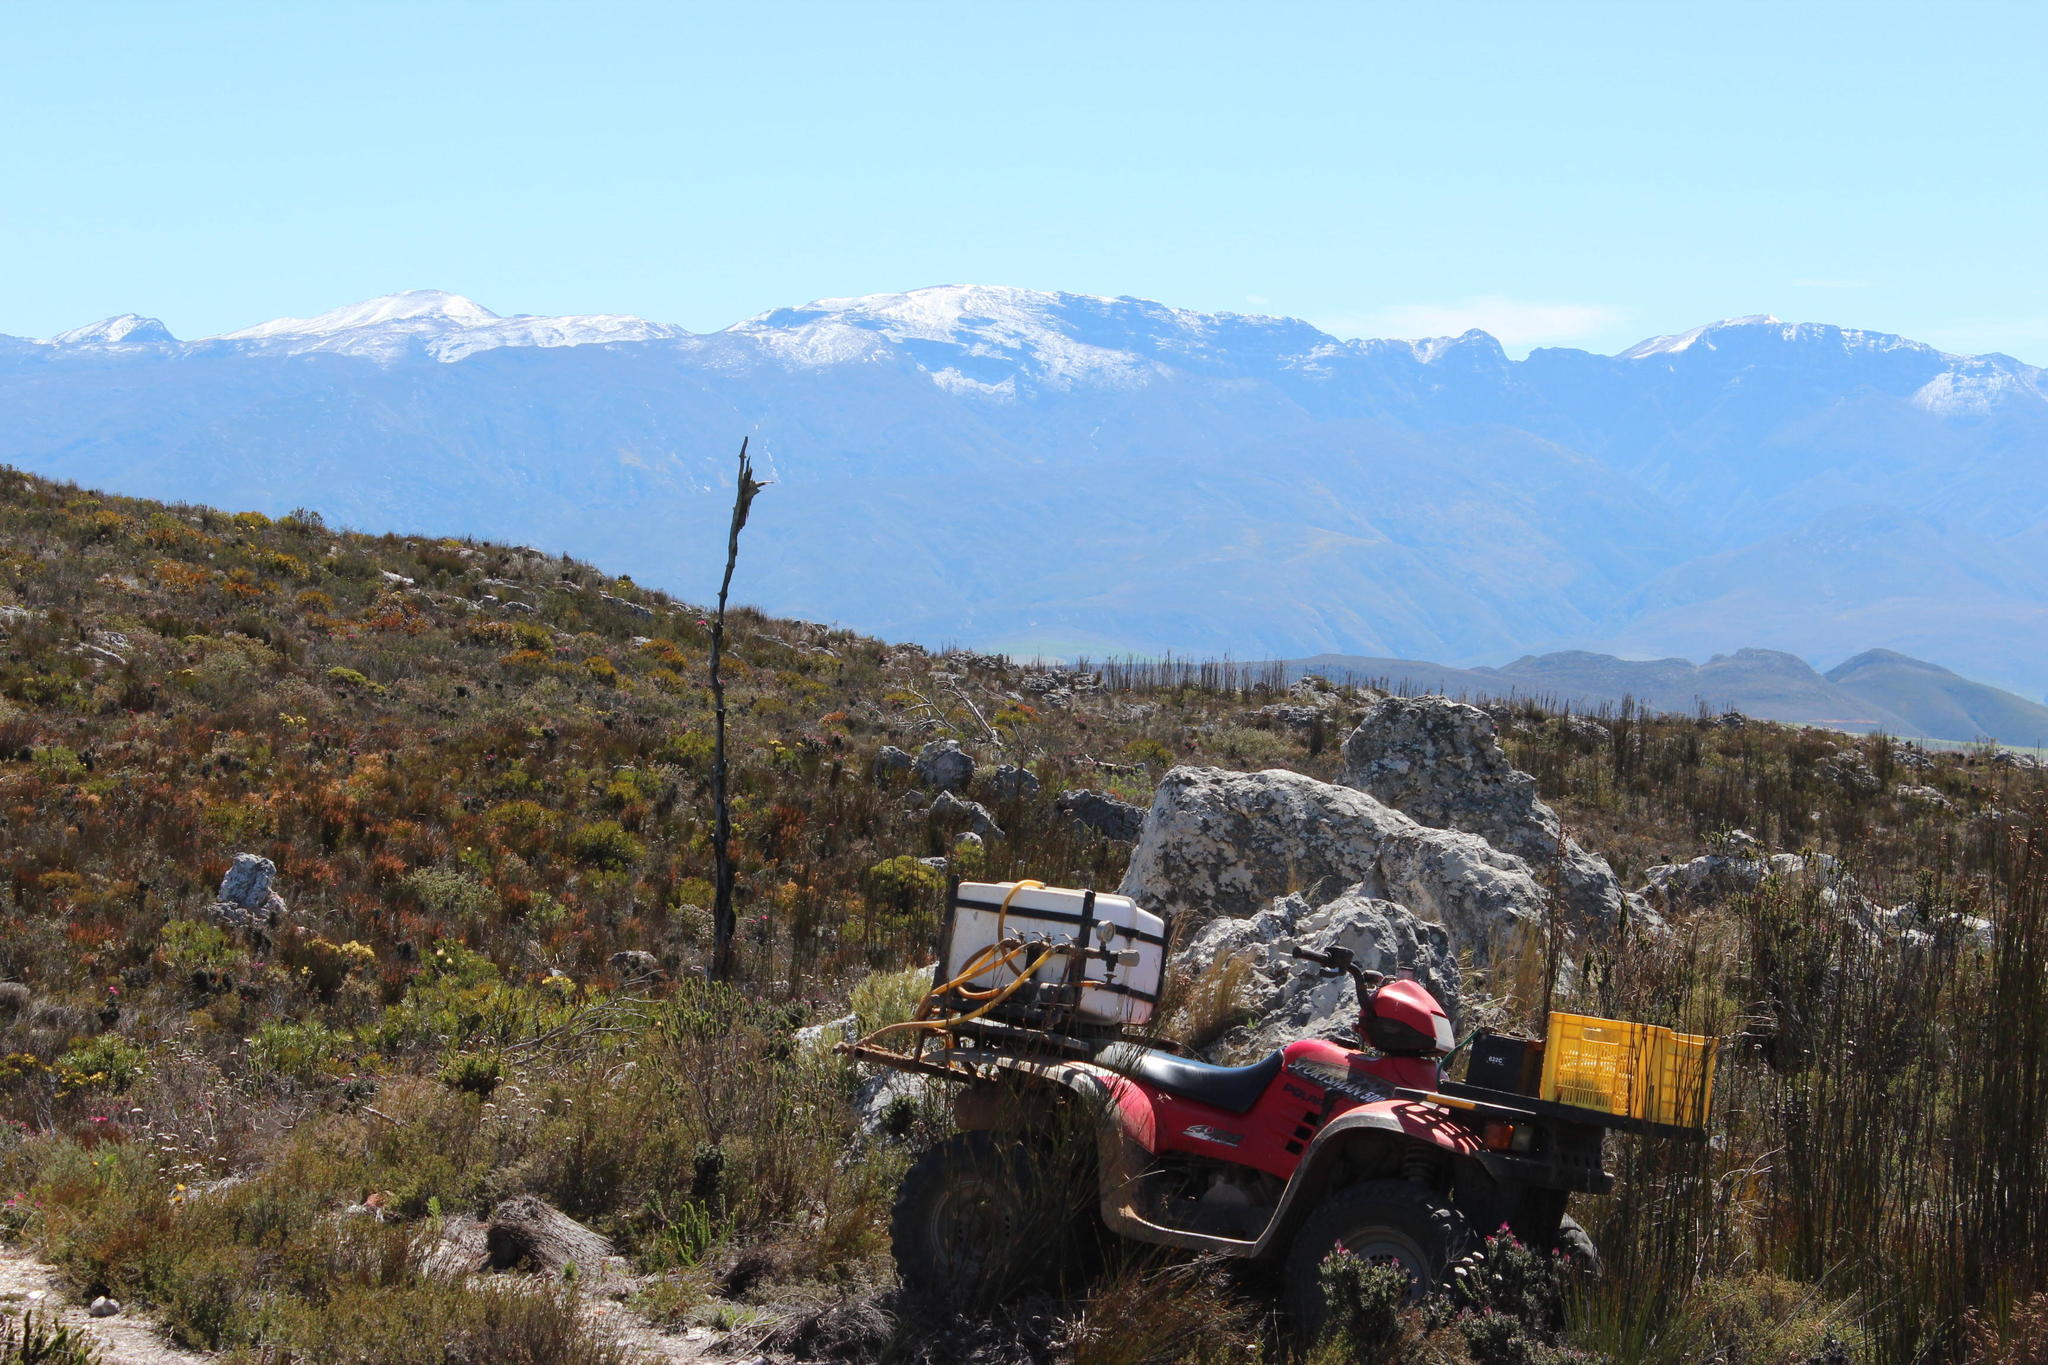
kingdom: Plantae
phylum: Tracheophyta
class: Pinopsida
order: Pinales
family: Pinaceae
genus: Pinus
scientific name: Pinus pinaster
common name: Maritime pine
